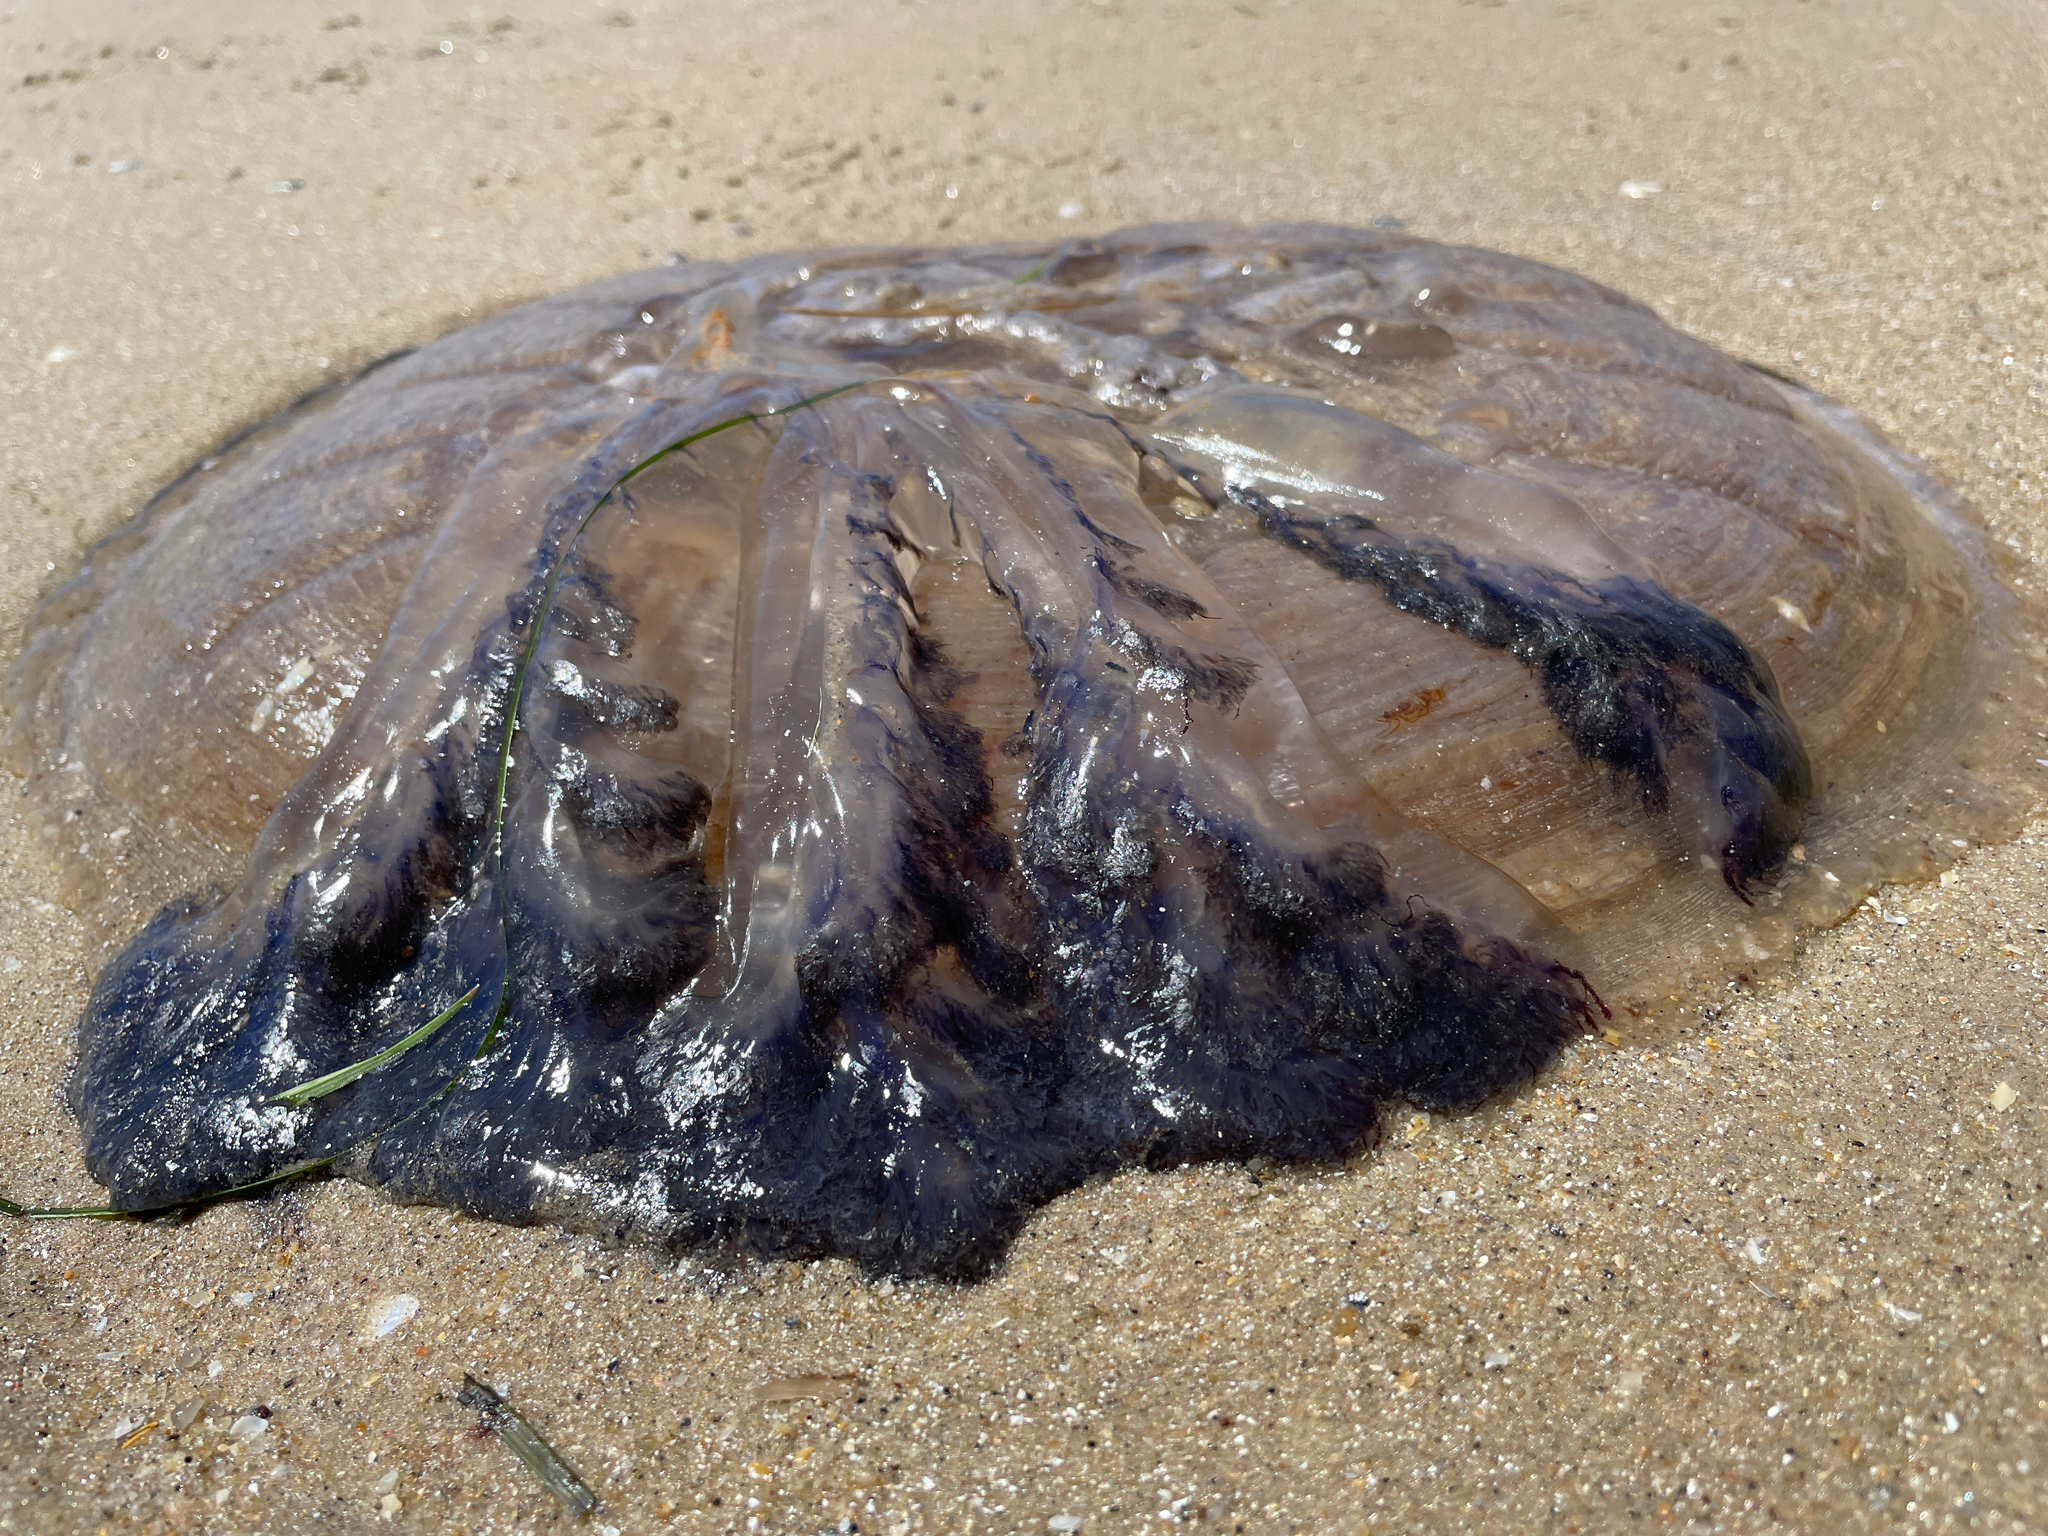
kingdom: Animalia
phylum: Cnidaria
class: Scyphozoa
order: Rhizostomeae
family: Lychnorhizidae
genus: Pseudorhiza
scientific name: Pseudorhiza haeckeli
